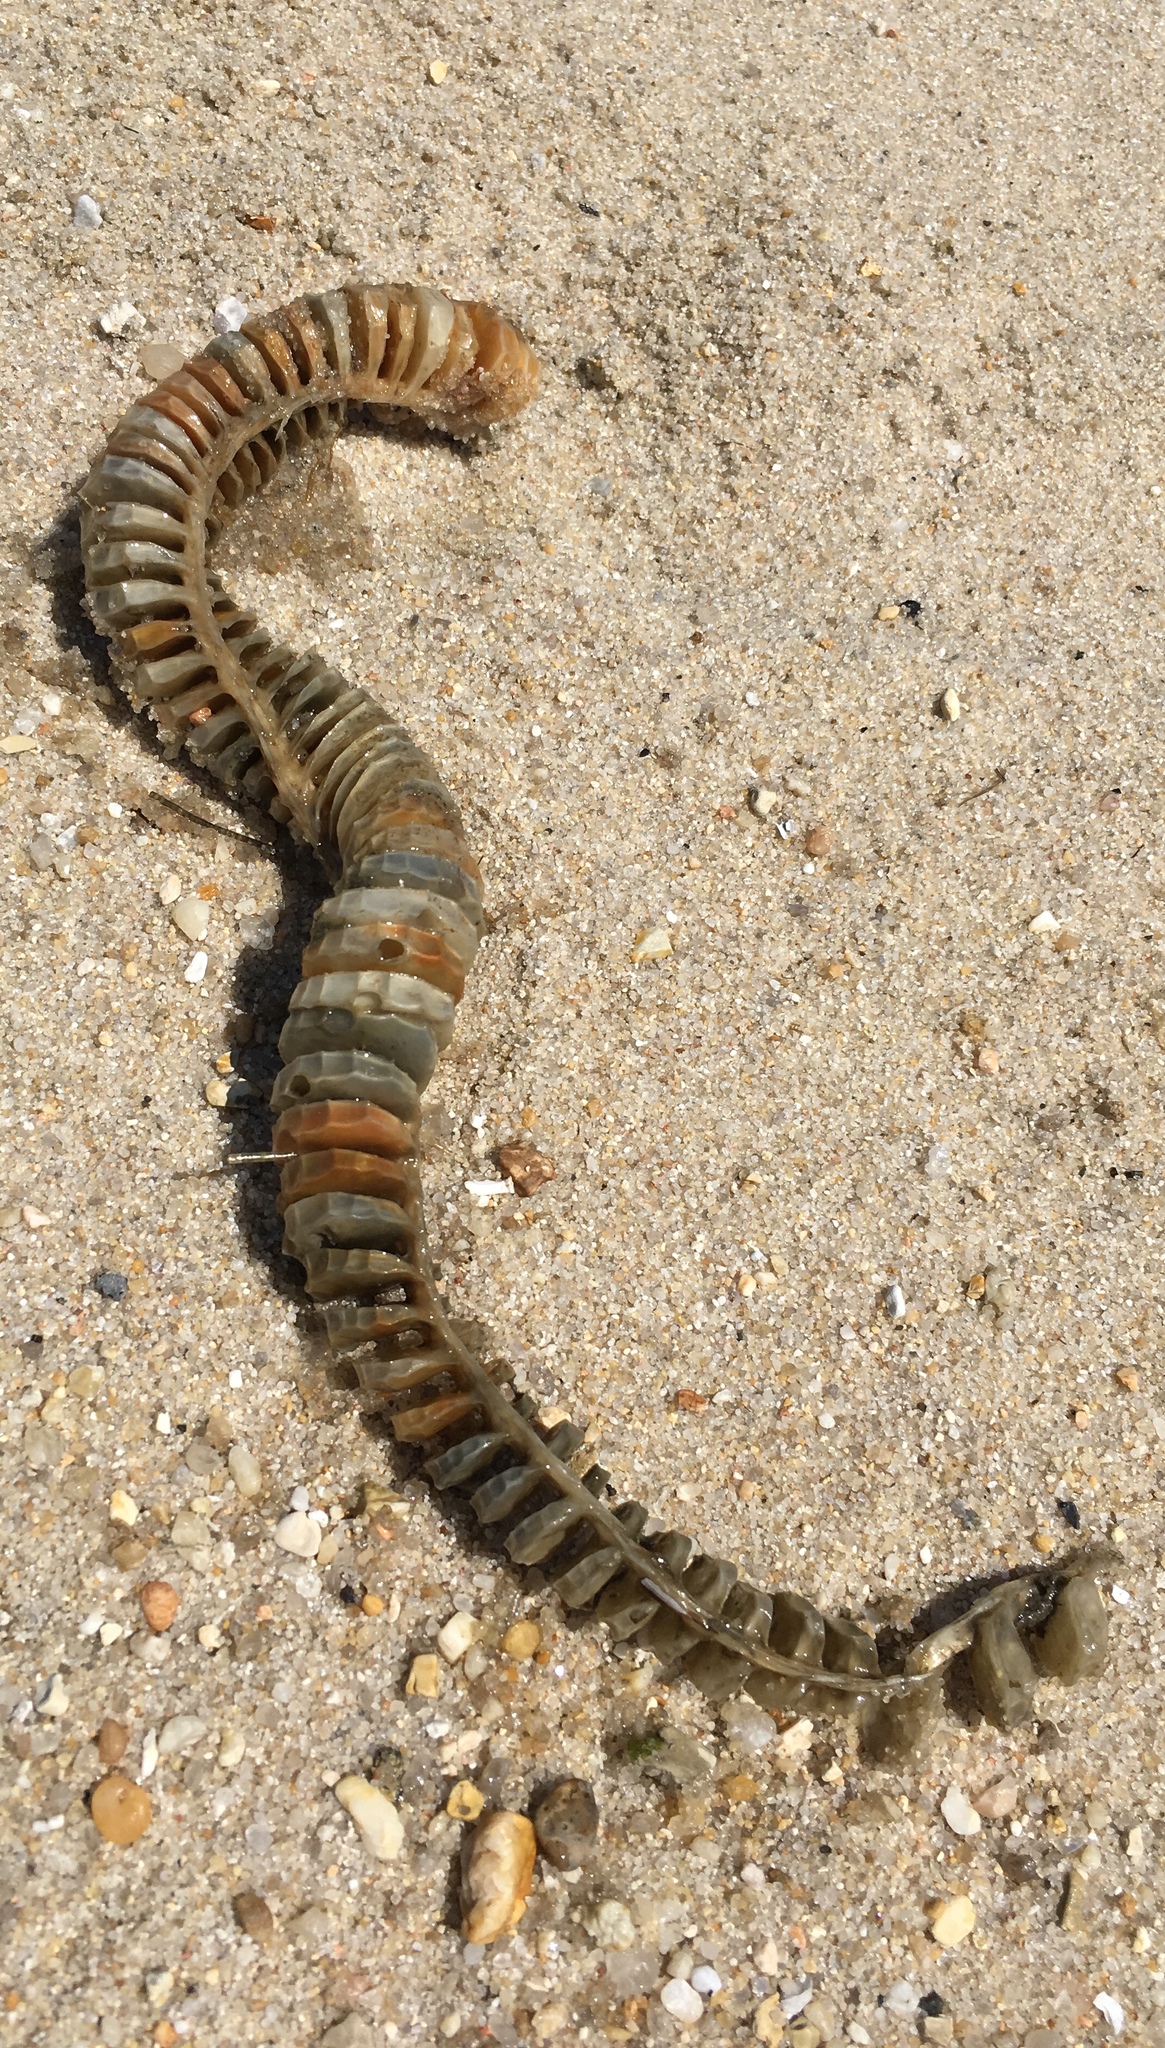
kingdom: Animalia
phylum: Mollusca
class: Gastropoda
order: Neogastropoda
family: Busyconidae
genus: Busycon
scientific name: Busycon carica
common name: Knobbed whelk
